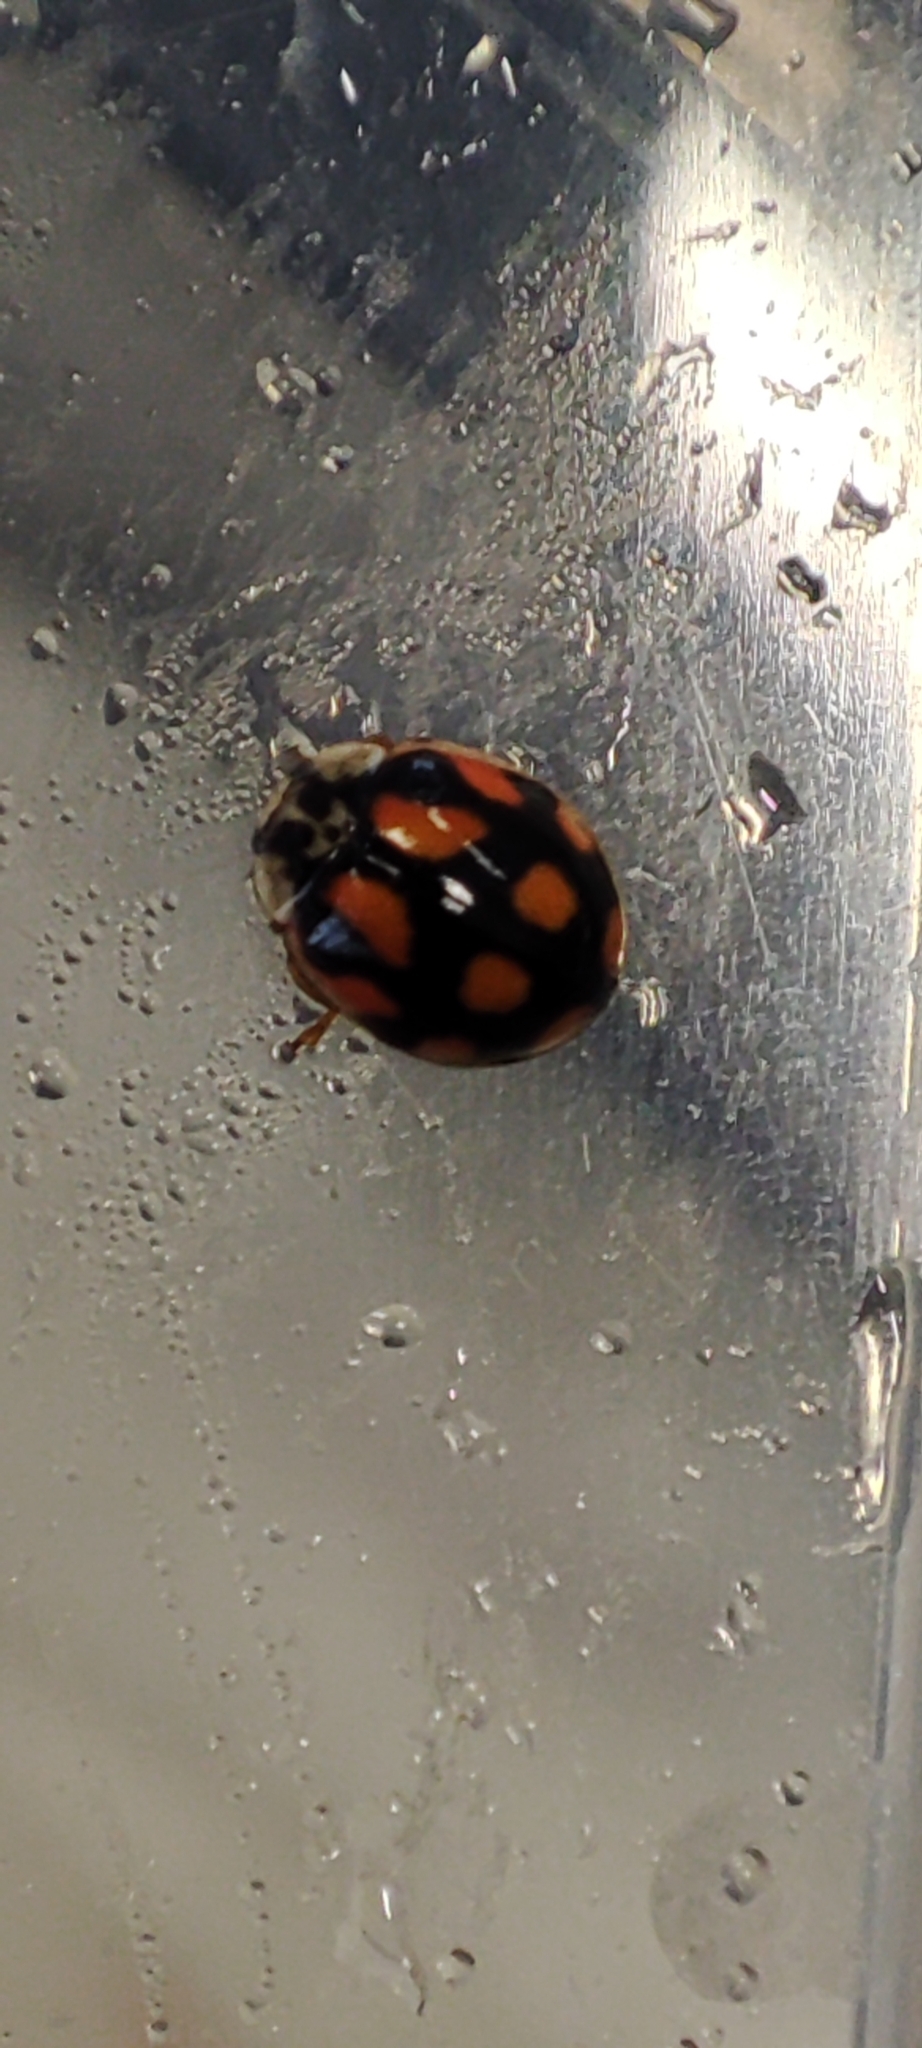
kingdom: Animalia
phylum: Arthropoda
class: Insecta
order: Coleoptera
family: Coccinellidae
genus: Adalia
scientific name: Adalia decempunctata
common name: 10-spot ladybird
